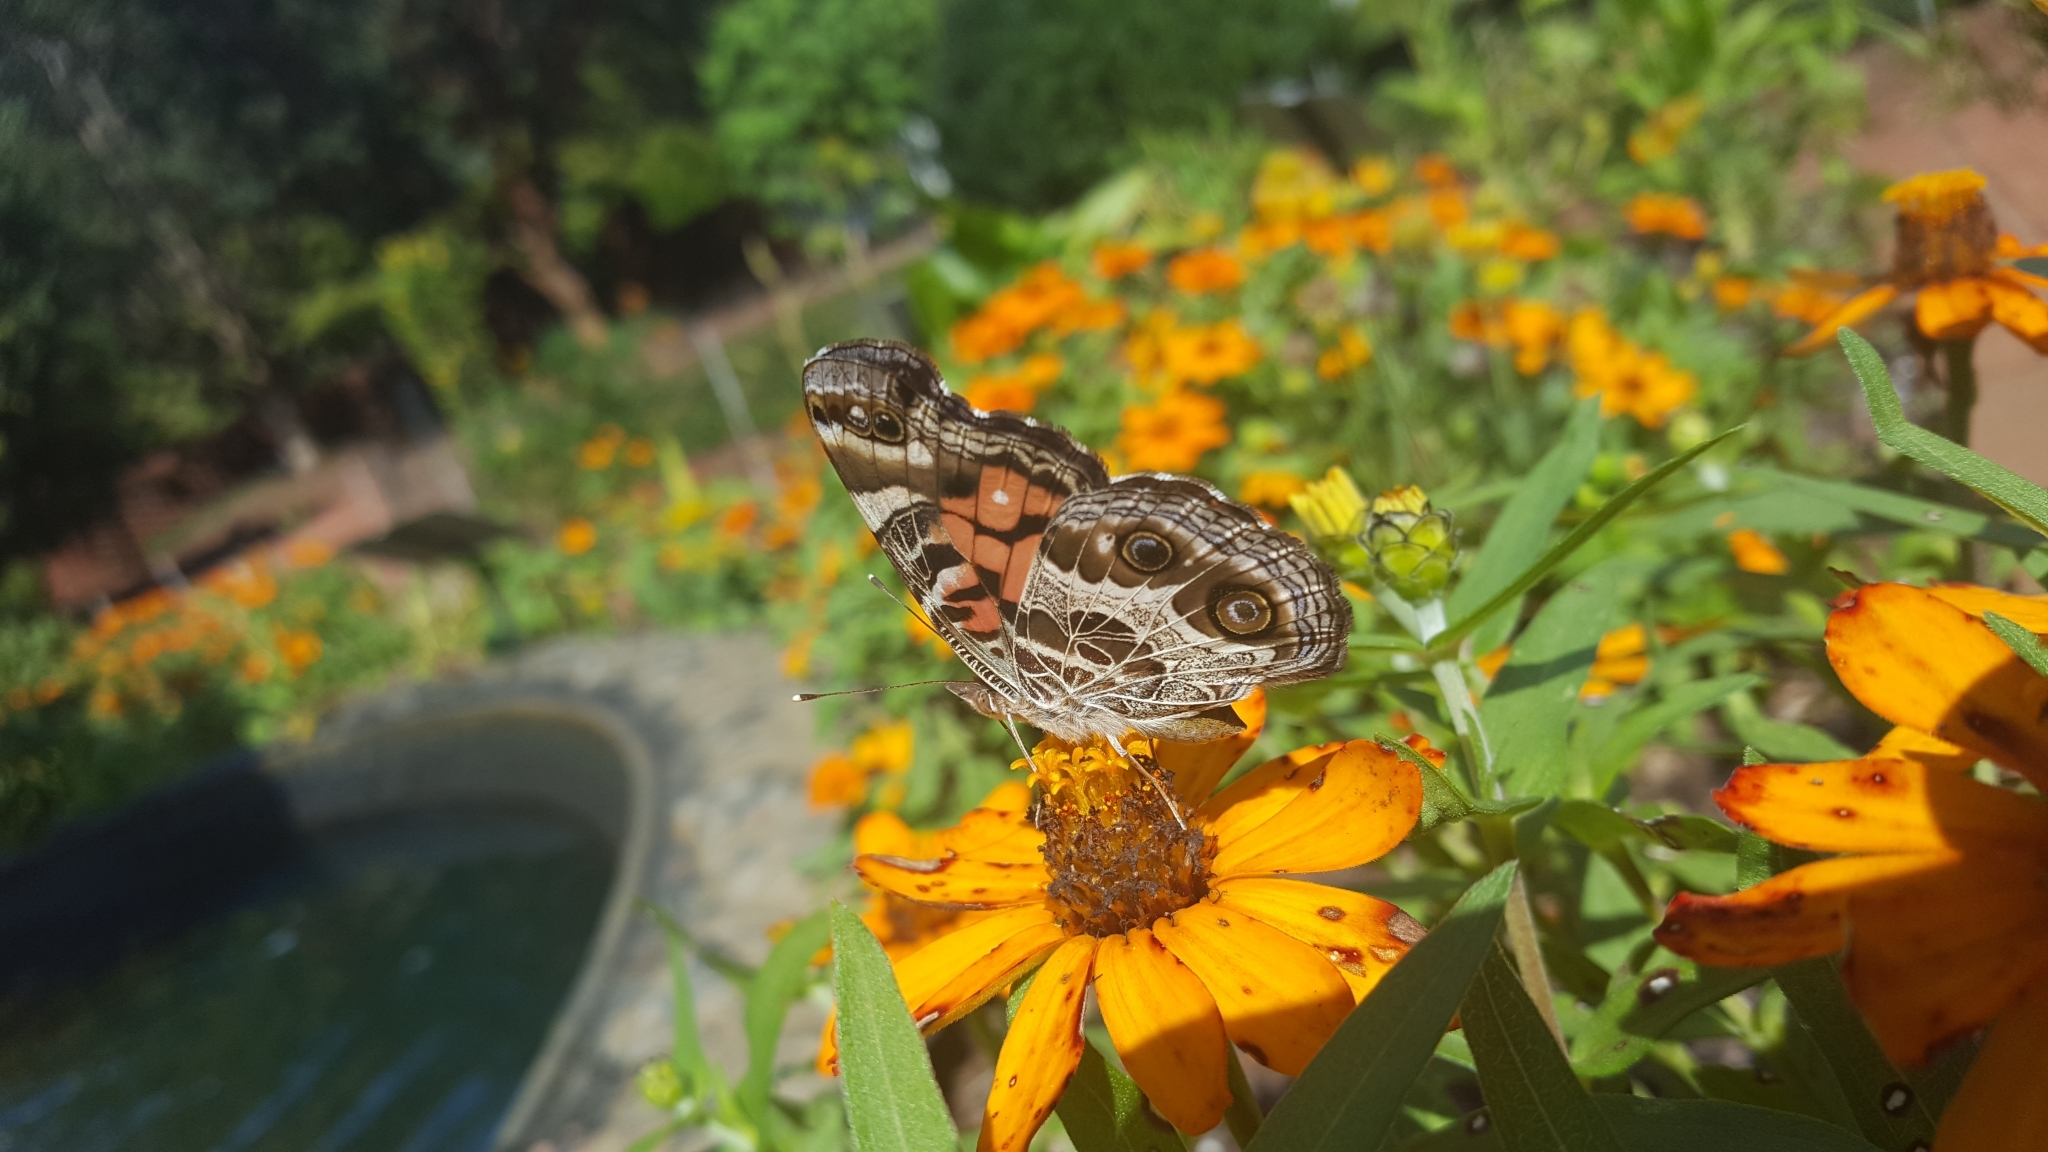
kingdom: Animalia
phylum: Arthropoda
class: Insecta
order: Lepidoptera
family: Nymphalidae
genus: Vanessa
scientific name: Vanessa virginiensis
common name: American lady
